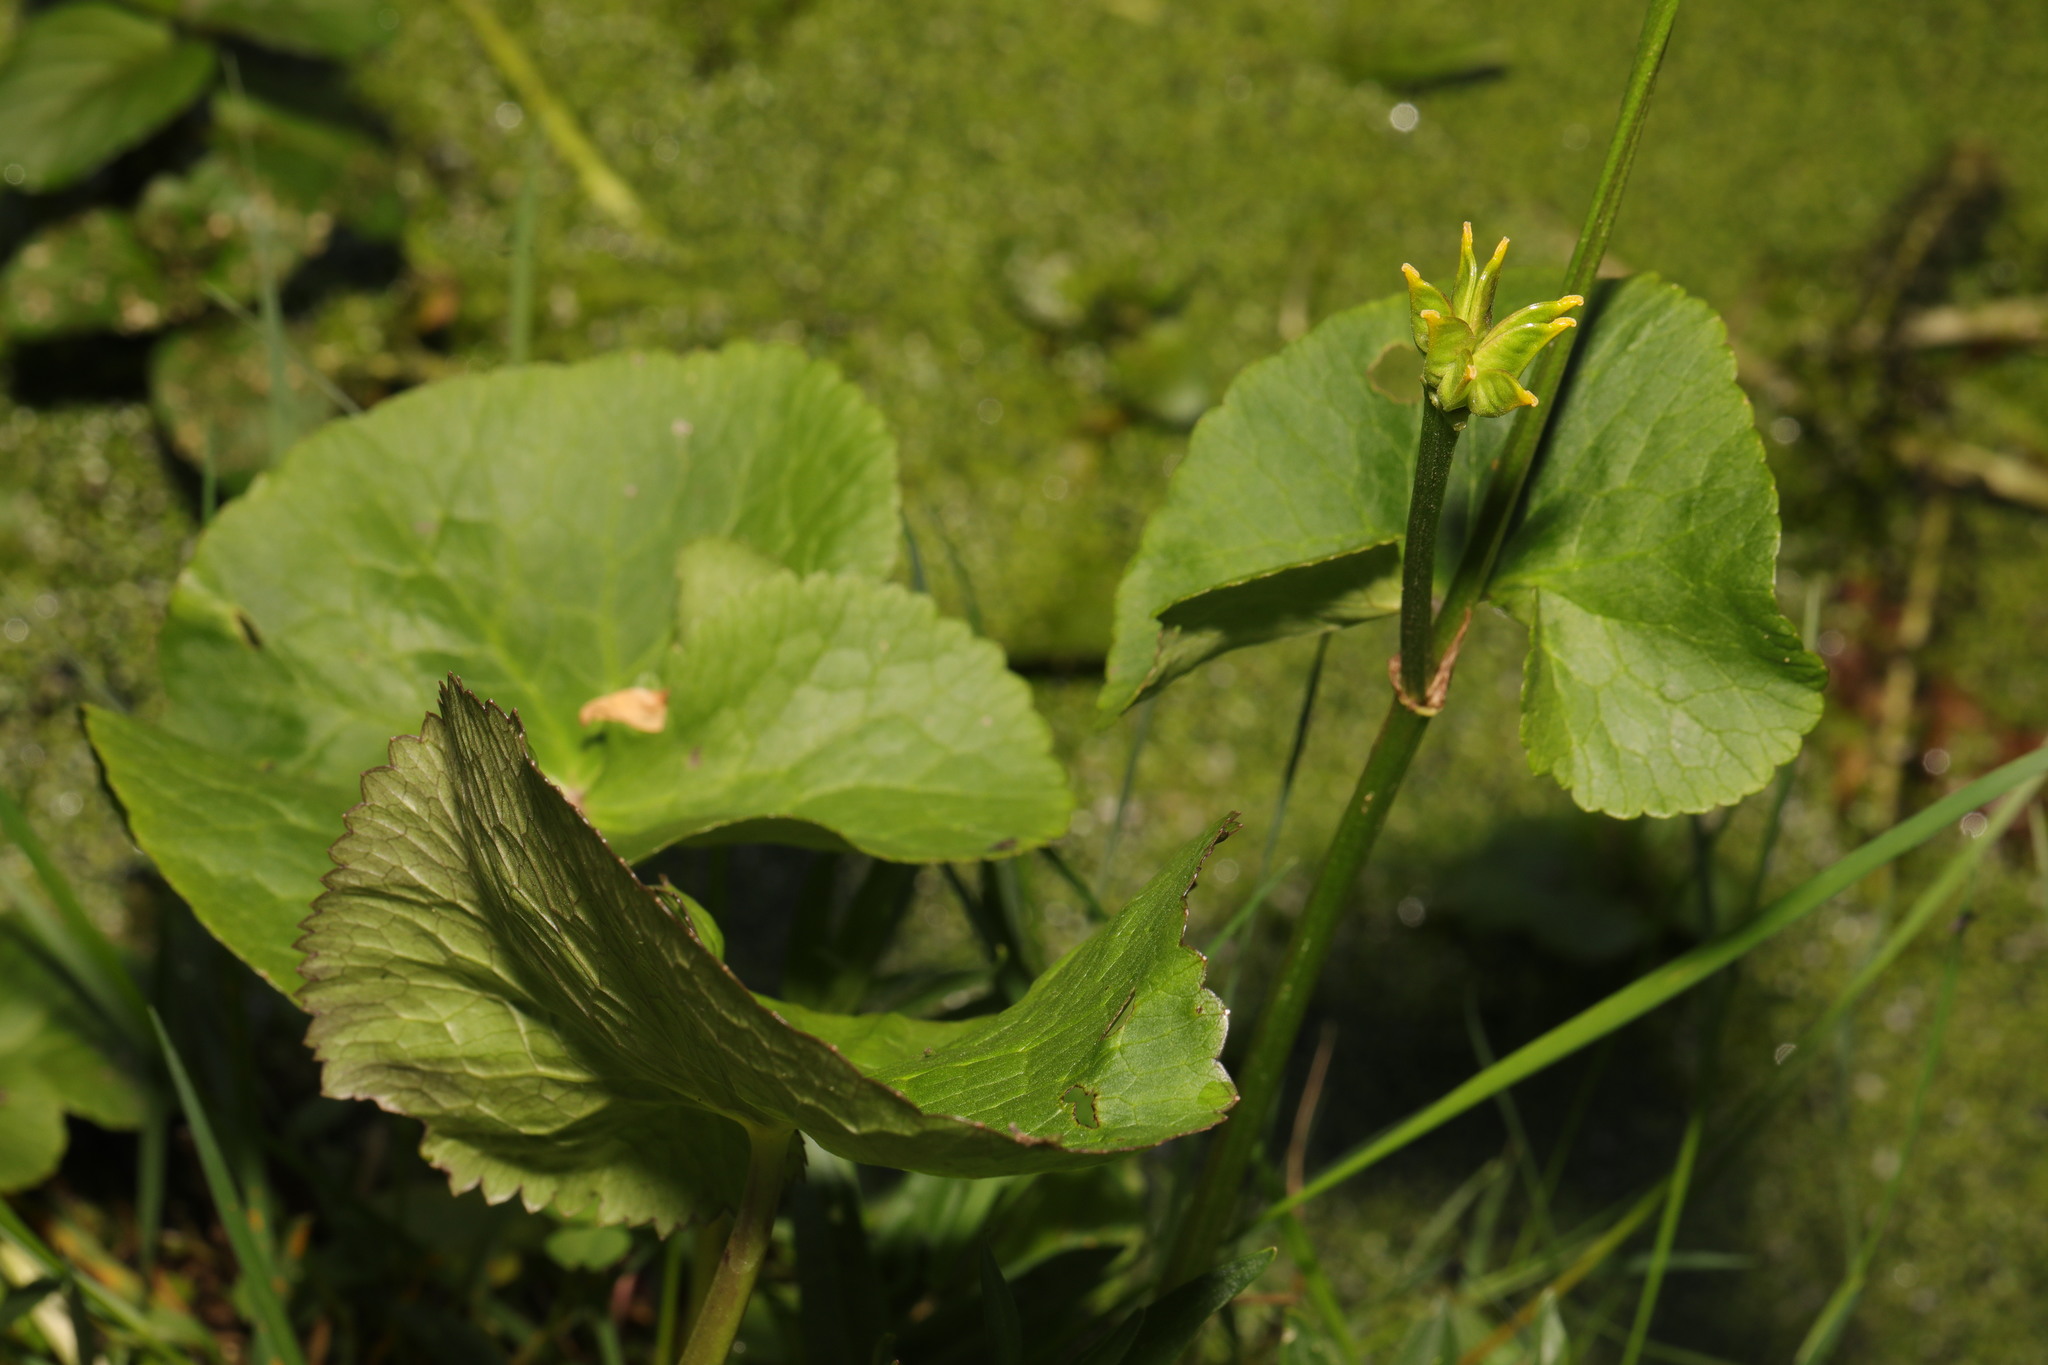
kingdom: Plantae
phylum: Tracheophyta
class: Magnoliopsida
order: Ranunculales
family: Ranunculaceae
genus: Caltha
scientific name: Caltha palustris
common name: Marsh marigold
